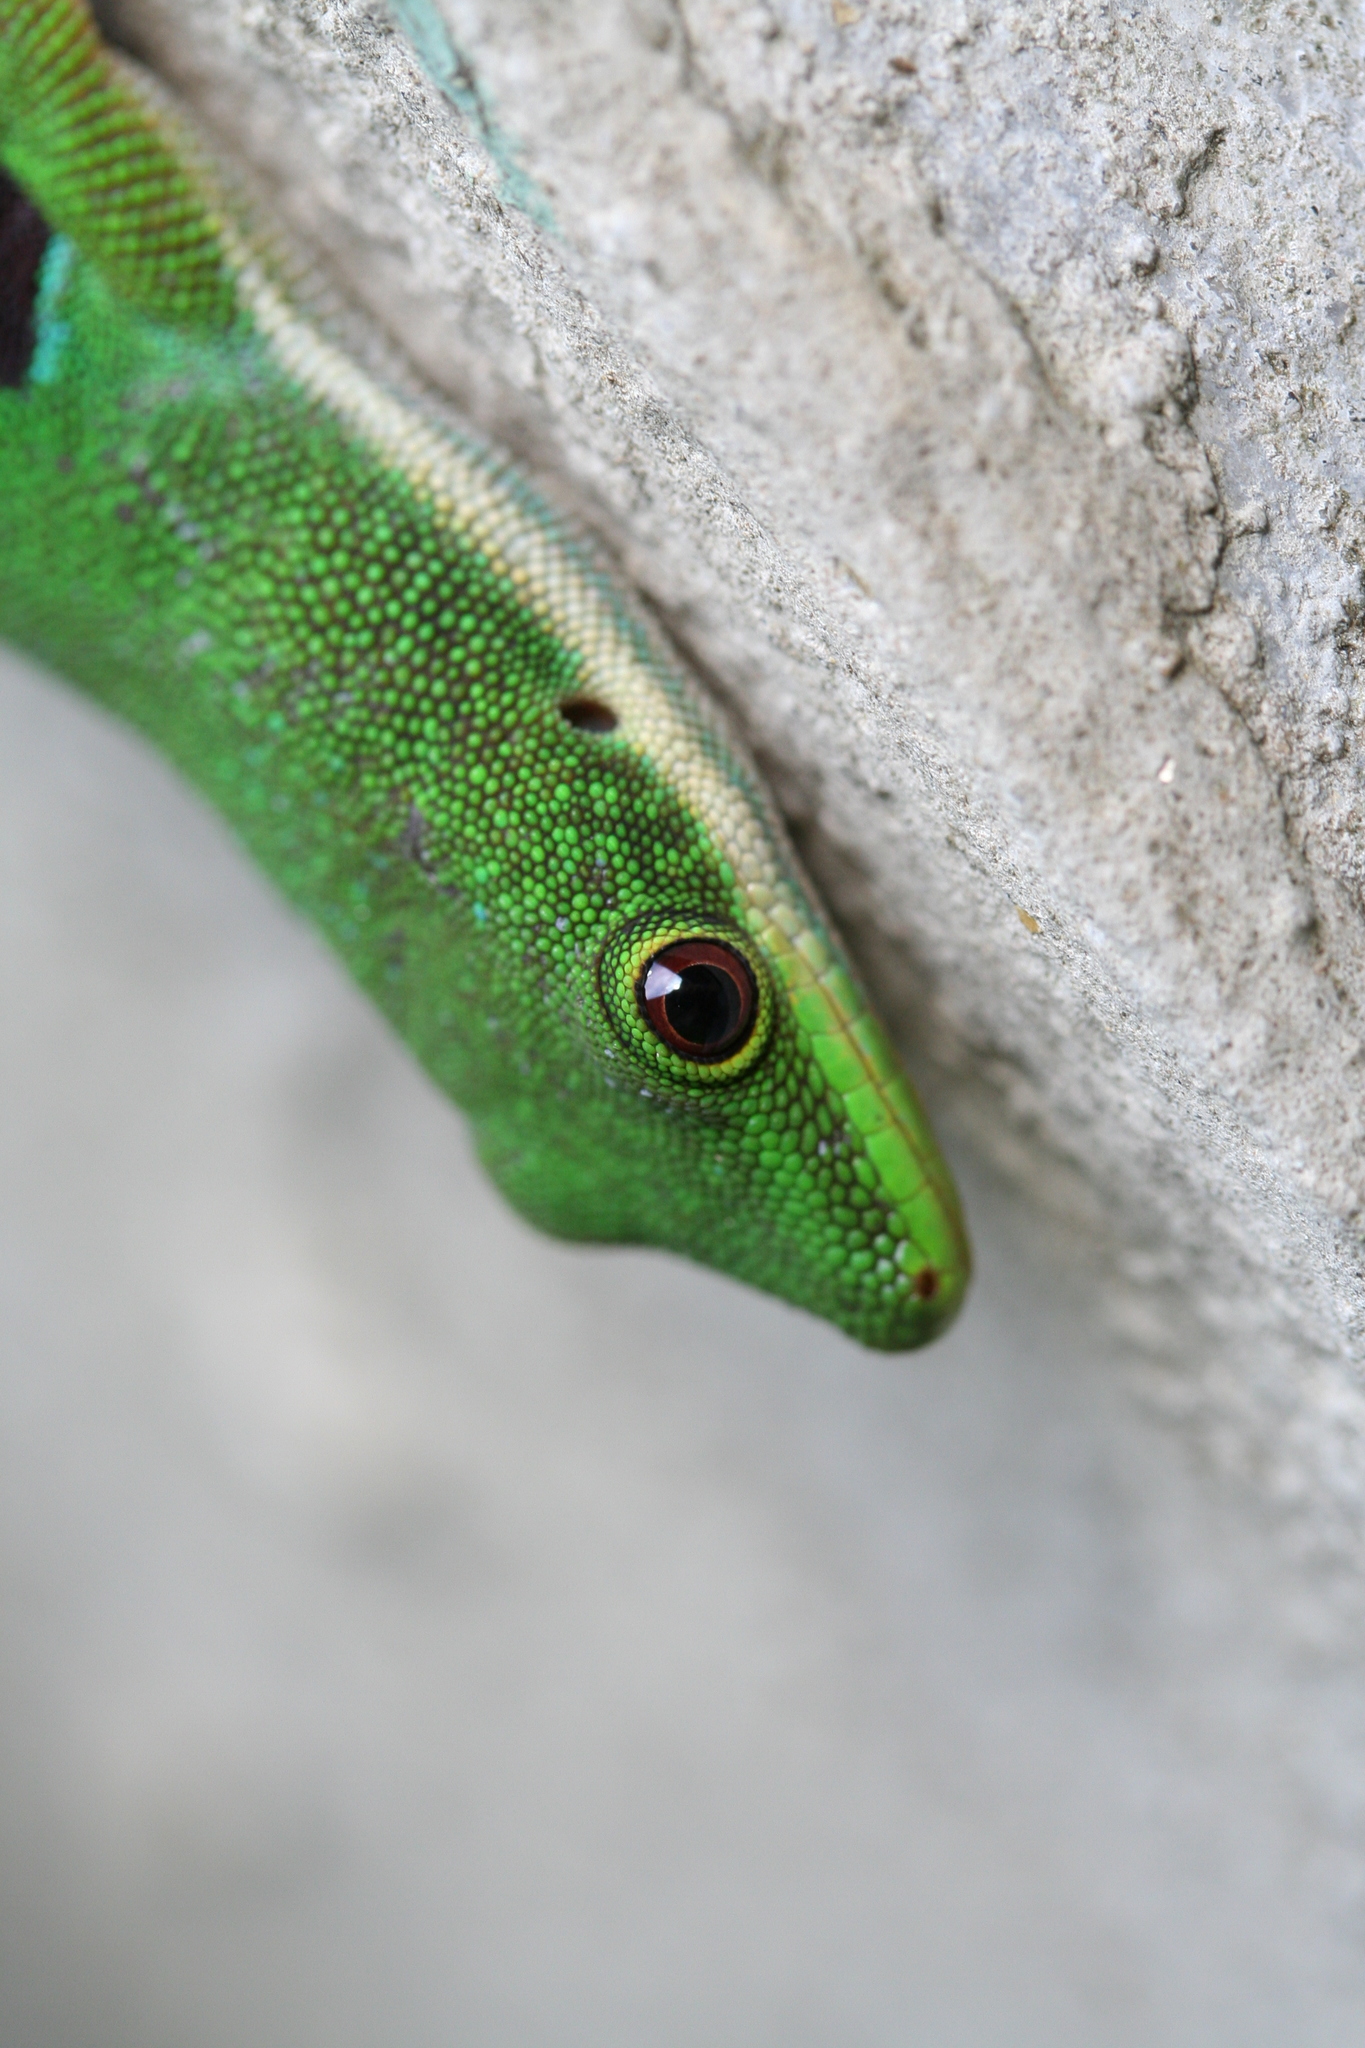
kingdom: Animalia
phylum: Chordata
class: Squamata
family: Gekkonidae
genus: Phelsuma
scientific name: Phelsuma quadriocellata
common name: Peacock day gecko
